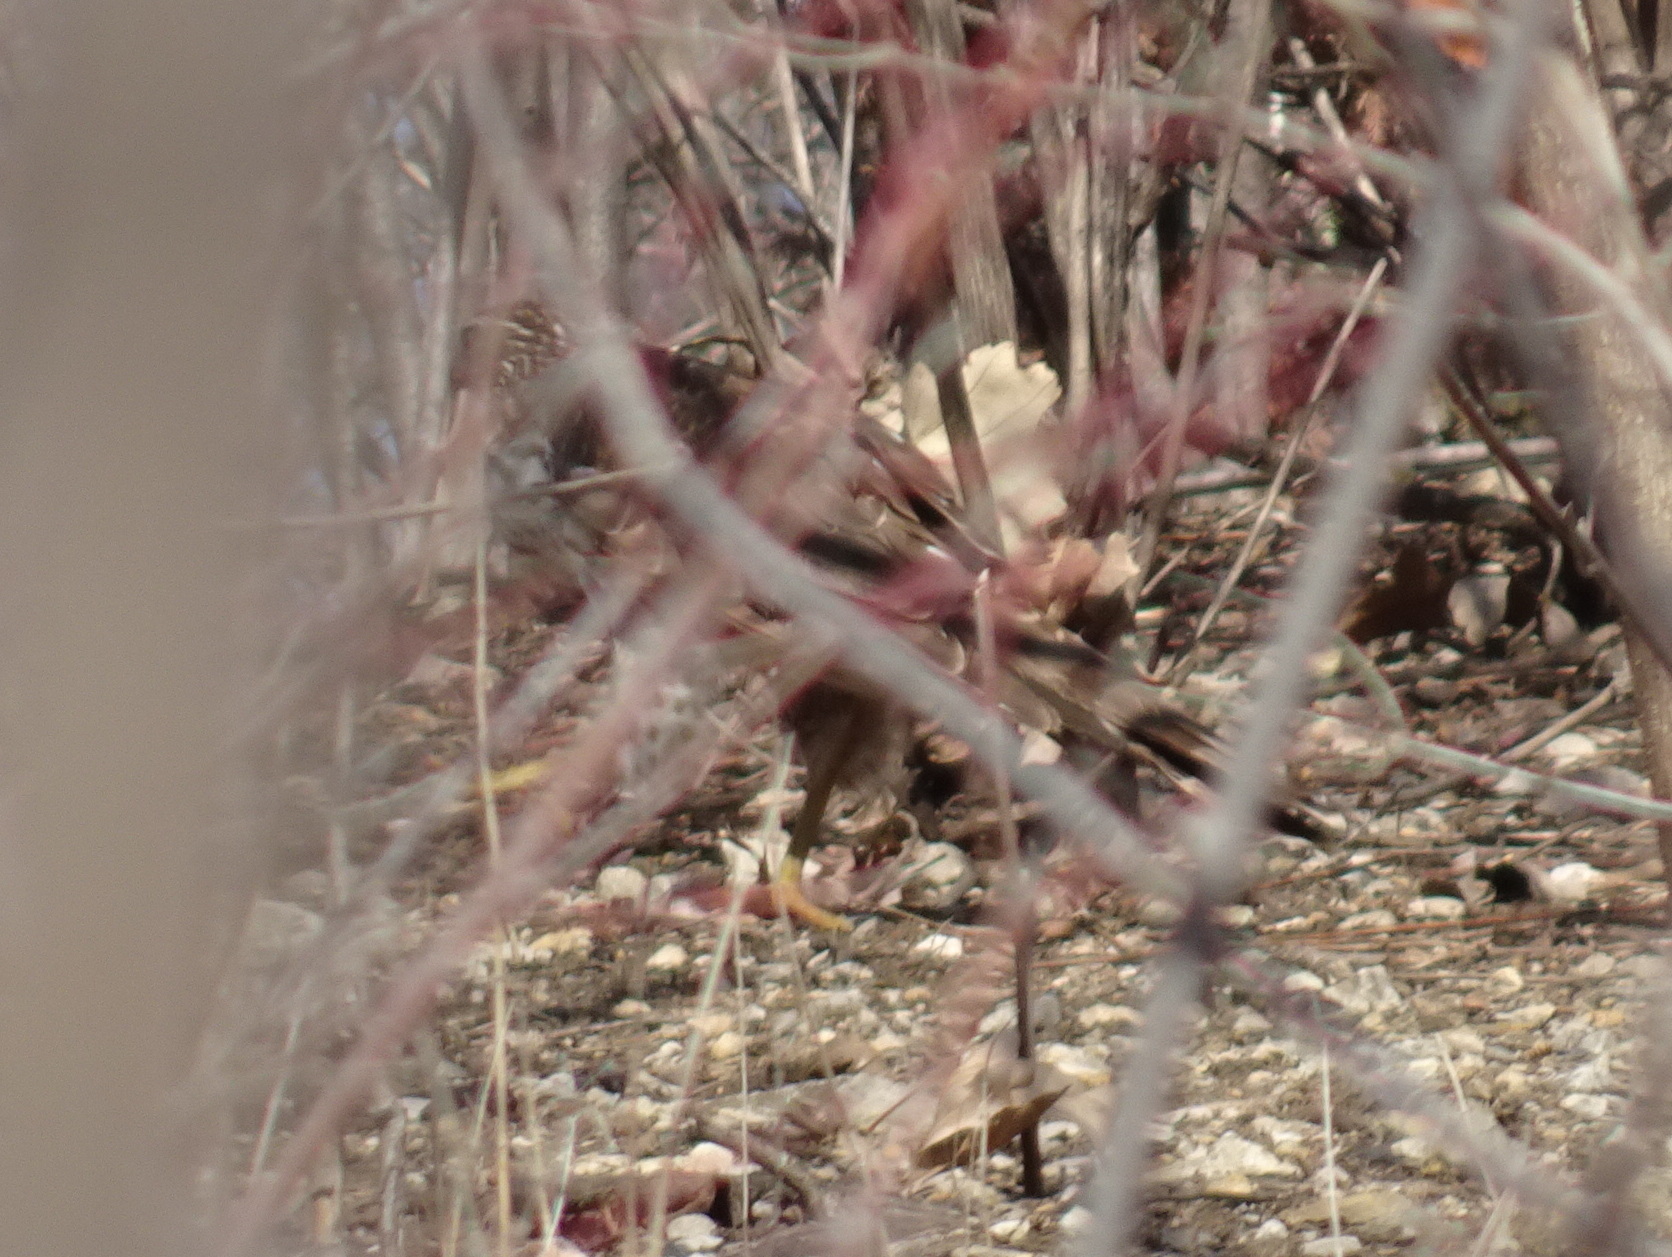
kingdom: Animalia
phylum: Chordata
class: Aves
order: Accipitriformes
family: Accipitridae
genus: Accipiter
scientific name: Accipiter cooperii
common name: Cooper's hawk
